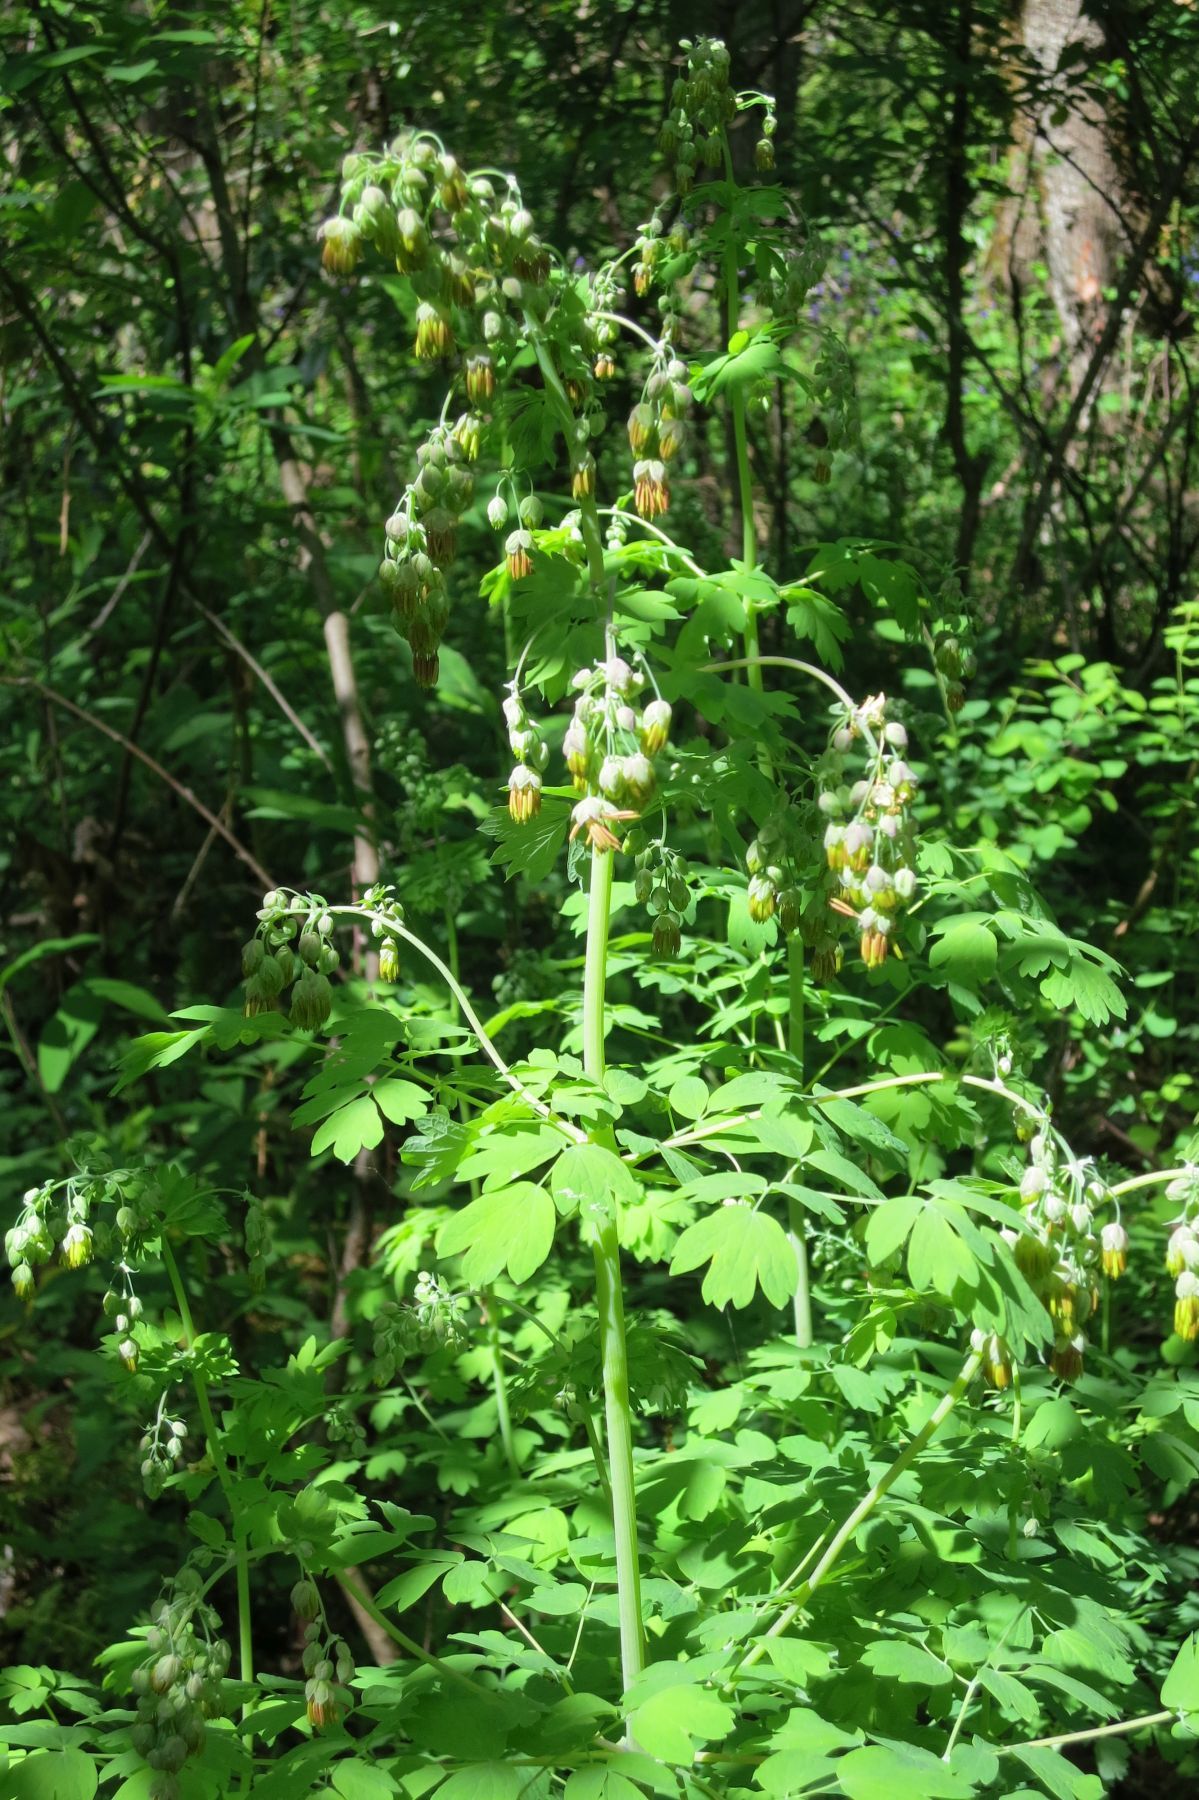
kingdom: Plantae
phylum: Tracheophyta
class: Magnoliopsida
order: Ranunculales
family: Ranunculaceae
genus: Thalictrum
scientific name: Thalictrum fendleri
